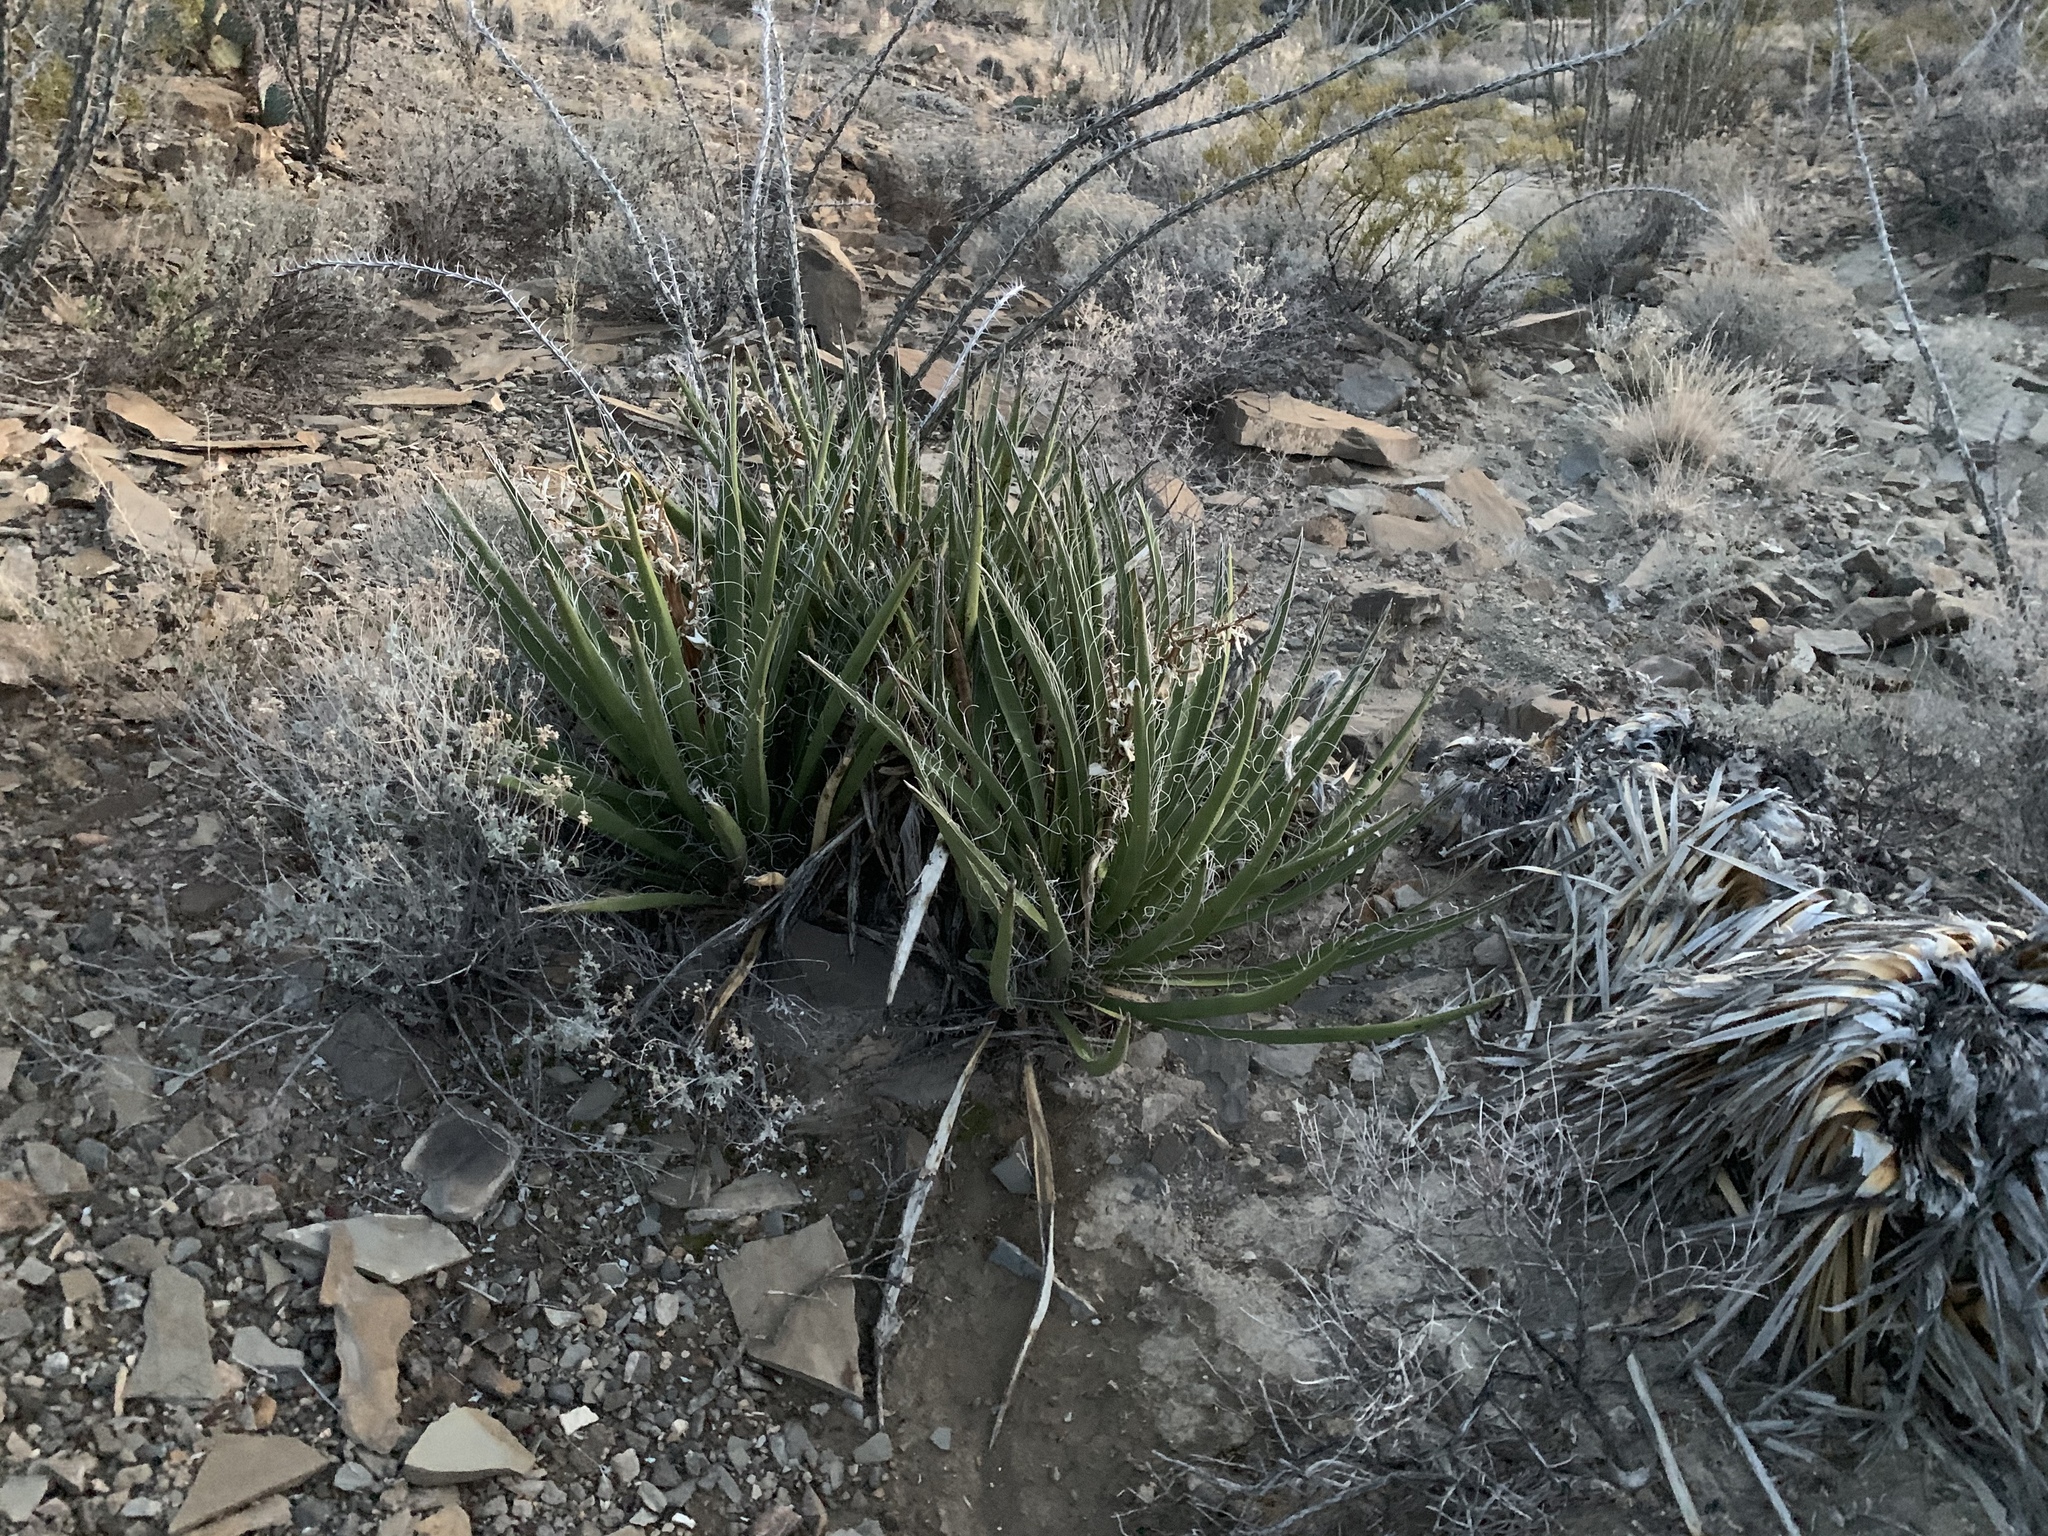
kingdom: Plantae
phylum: Tracheophyta
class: Liliopsida
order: Asparagales
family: Asparagaceae
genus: Yucca
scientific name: Yucca baccata
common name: Banana yucca
